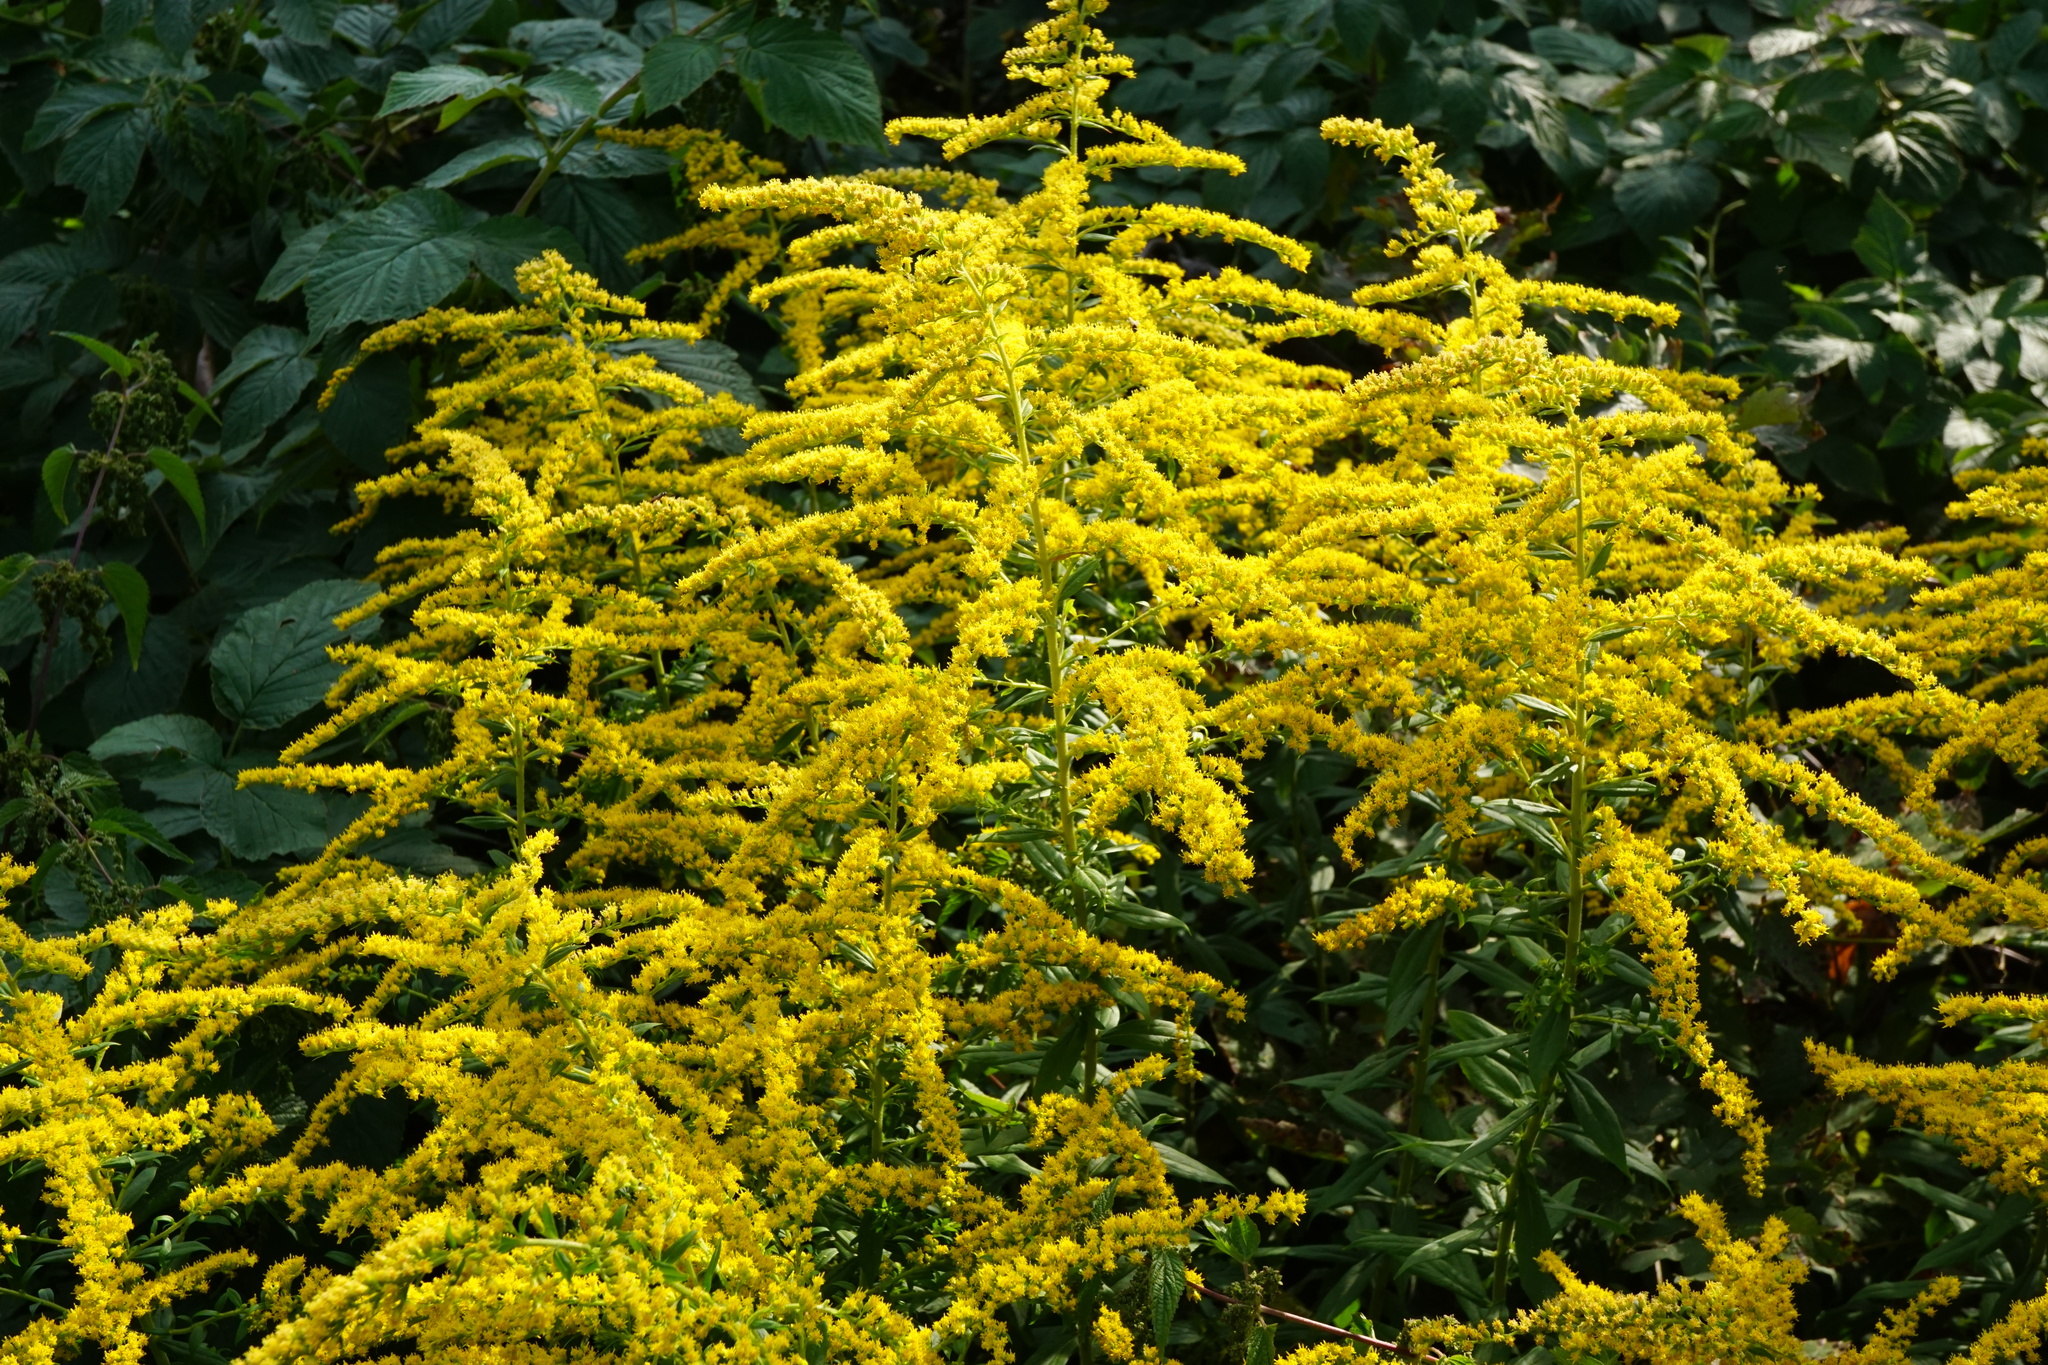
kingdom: Plantae
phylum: Tracheophyta
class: Magnoliopsida
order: Asterales
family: Asteraceae
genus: Solidago
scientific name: Solidago canadensis
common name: Canada goldenrod
